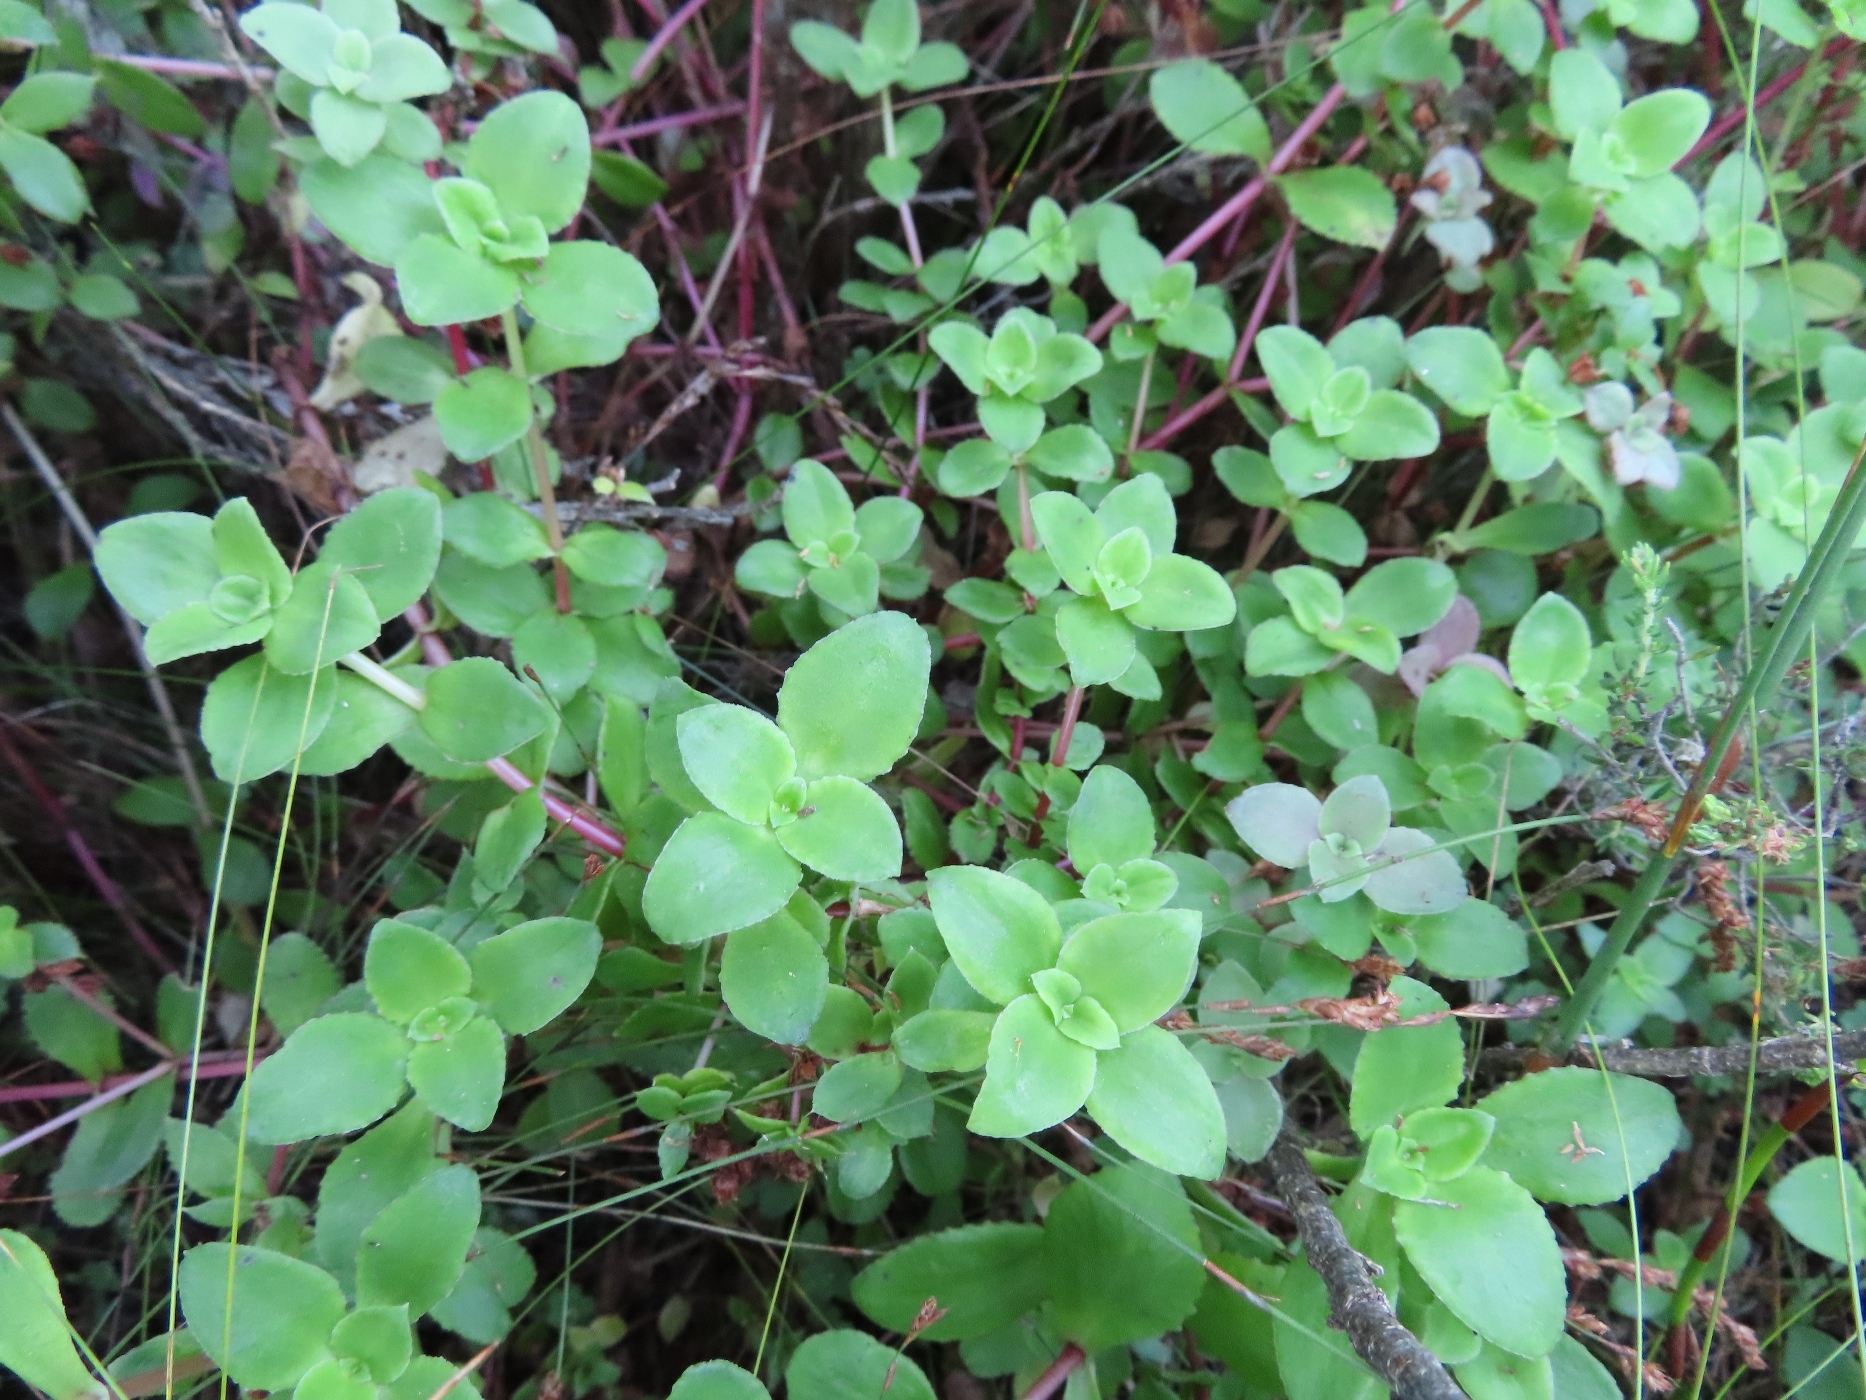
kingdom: Plantae
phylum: Tracheophyta
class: Magnoliopsida
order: Saxifragales
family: Crassulaceae
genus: Crassula
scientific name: Crassula pellucida
